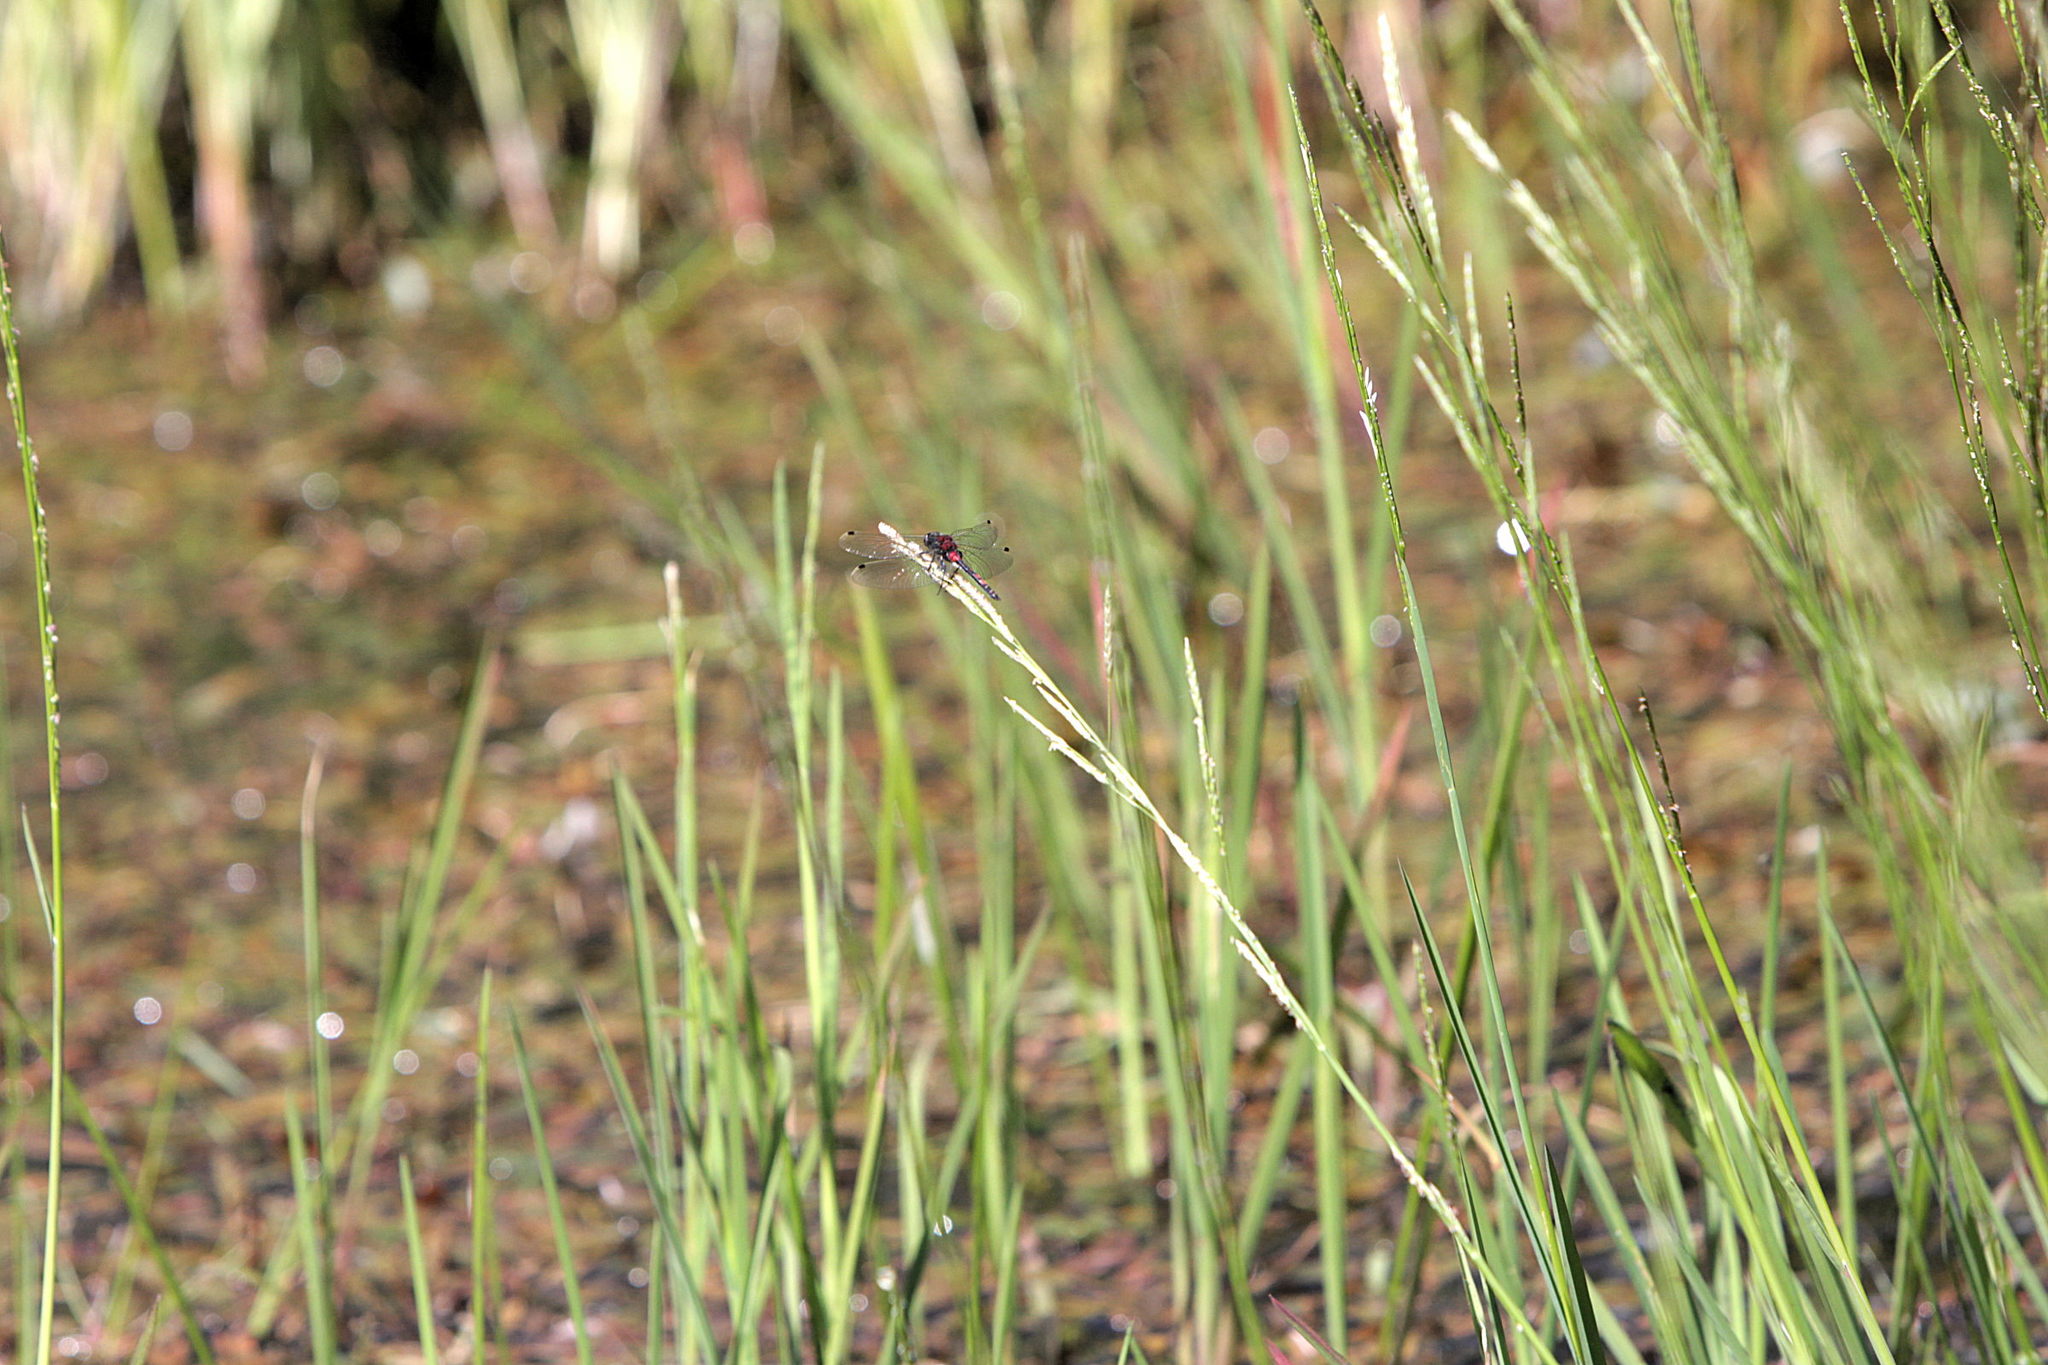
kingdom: Animalia
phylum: Arthropoda
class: Insecta
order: Odonata
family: Libellulidae
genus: Leucorrhinia
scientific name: Leucorrhinia dubia
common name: White-faced darter
